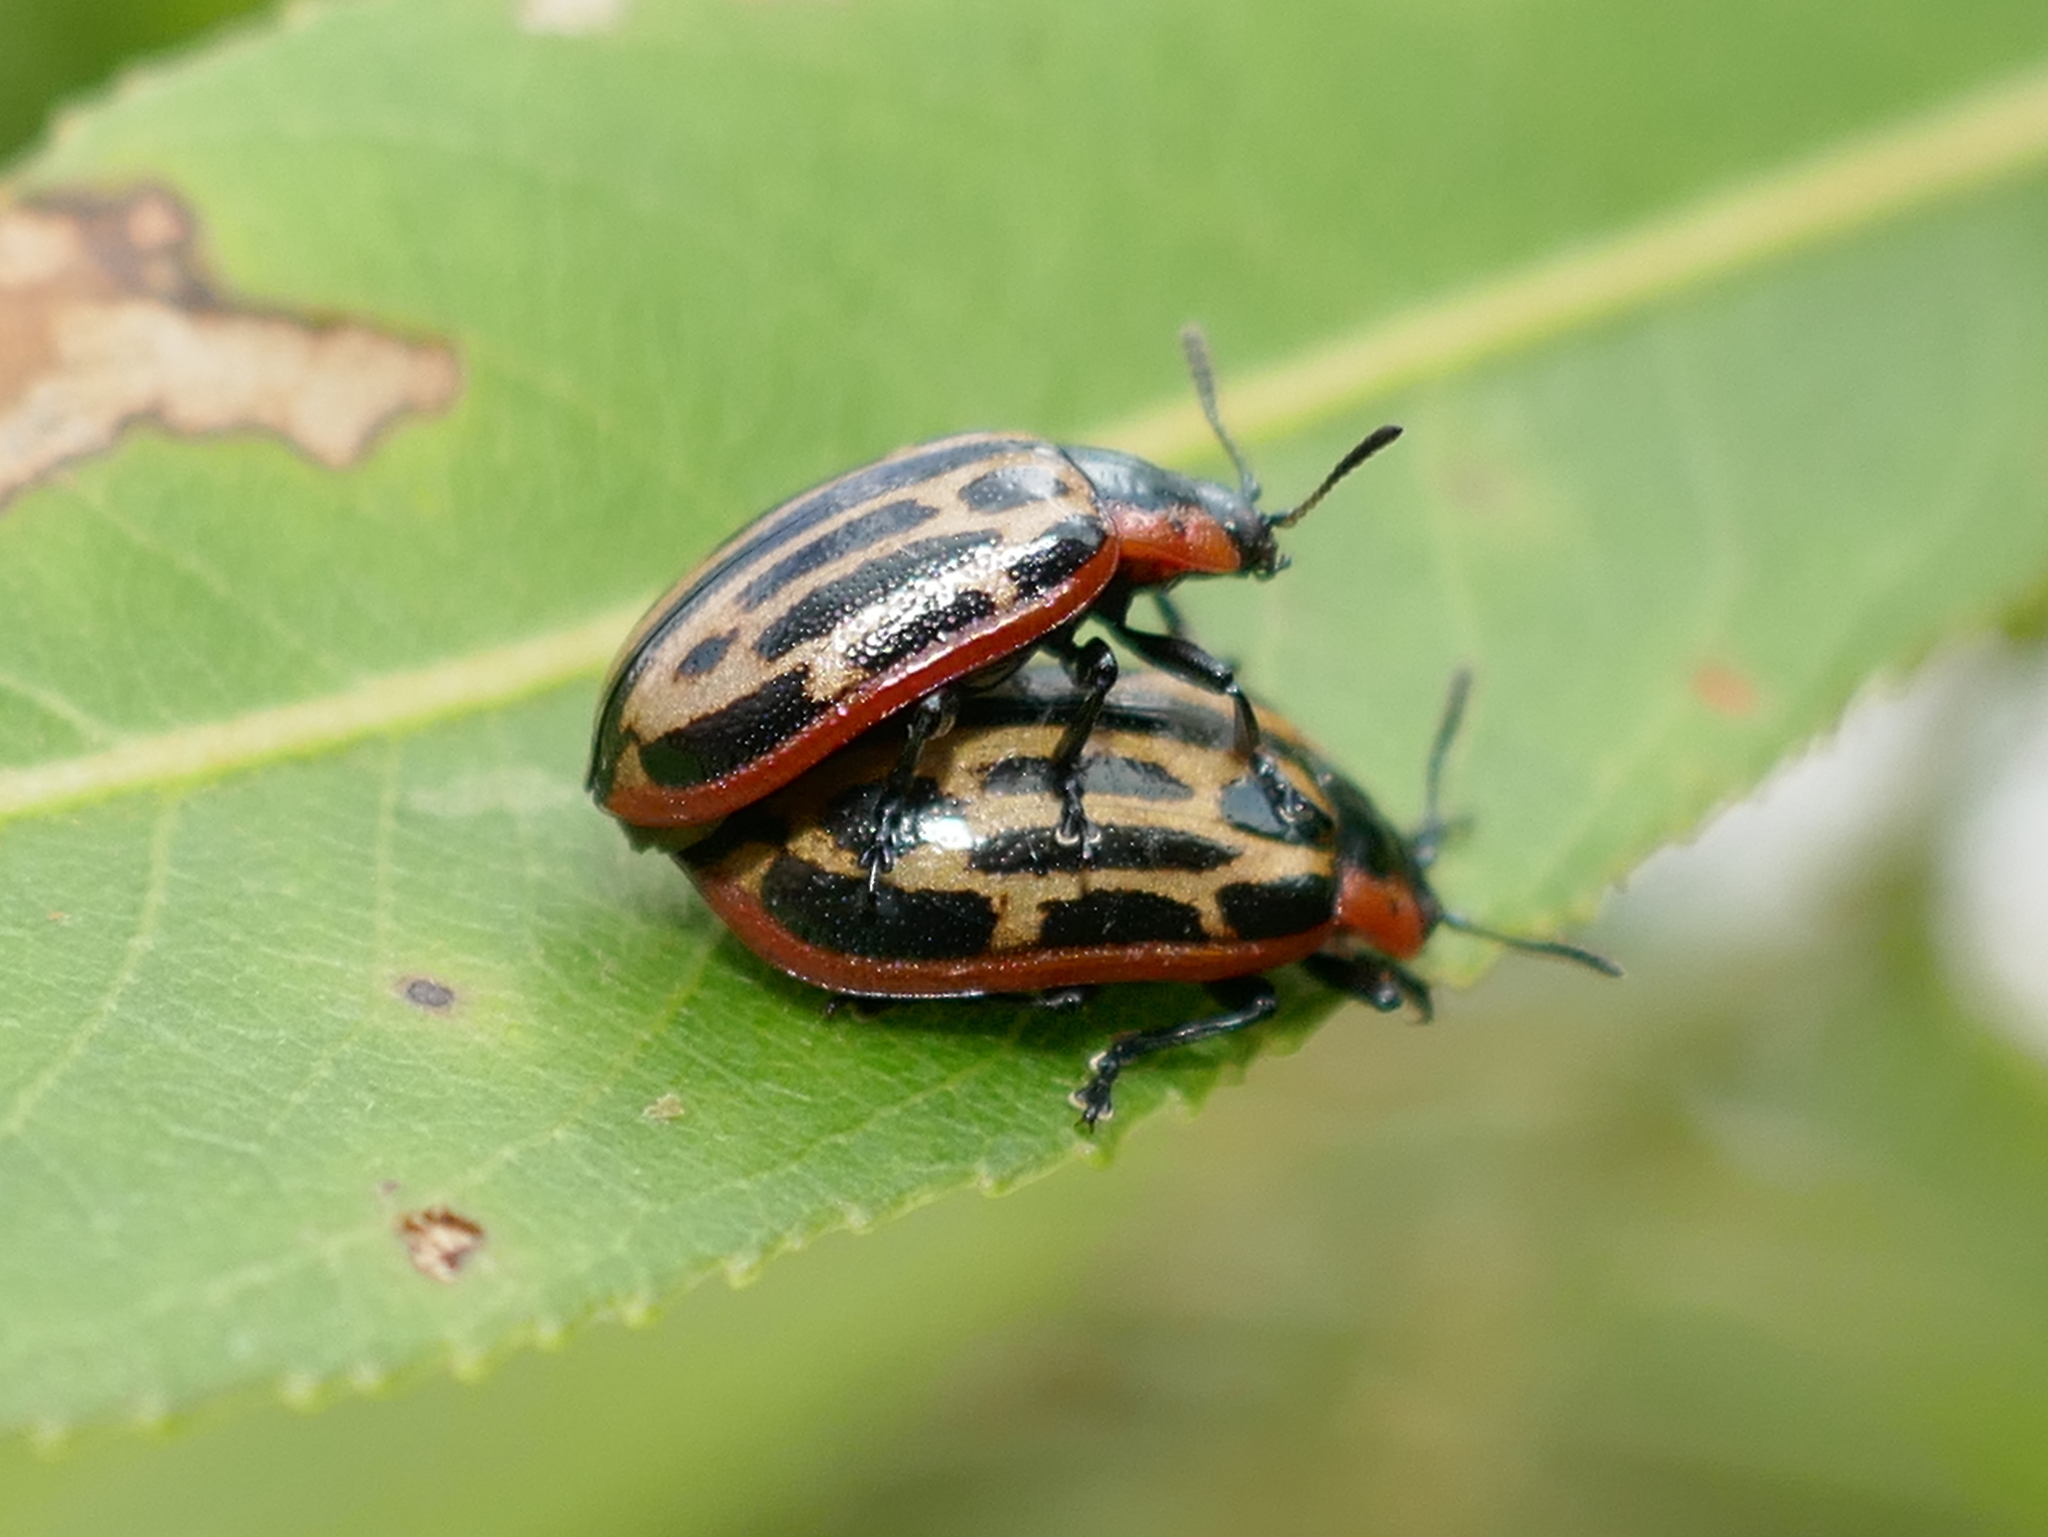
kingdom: Animalia
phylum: Arthropoda
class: Insecta
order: Coleoptera
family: Chrysomelidae
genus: Aethiopocassis
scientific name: Aethiopocassis scripta
